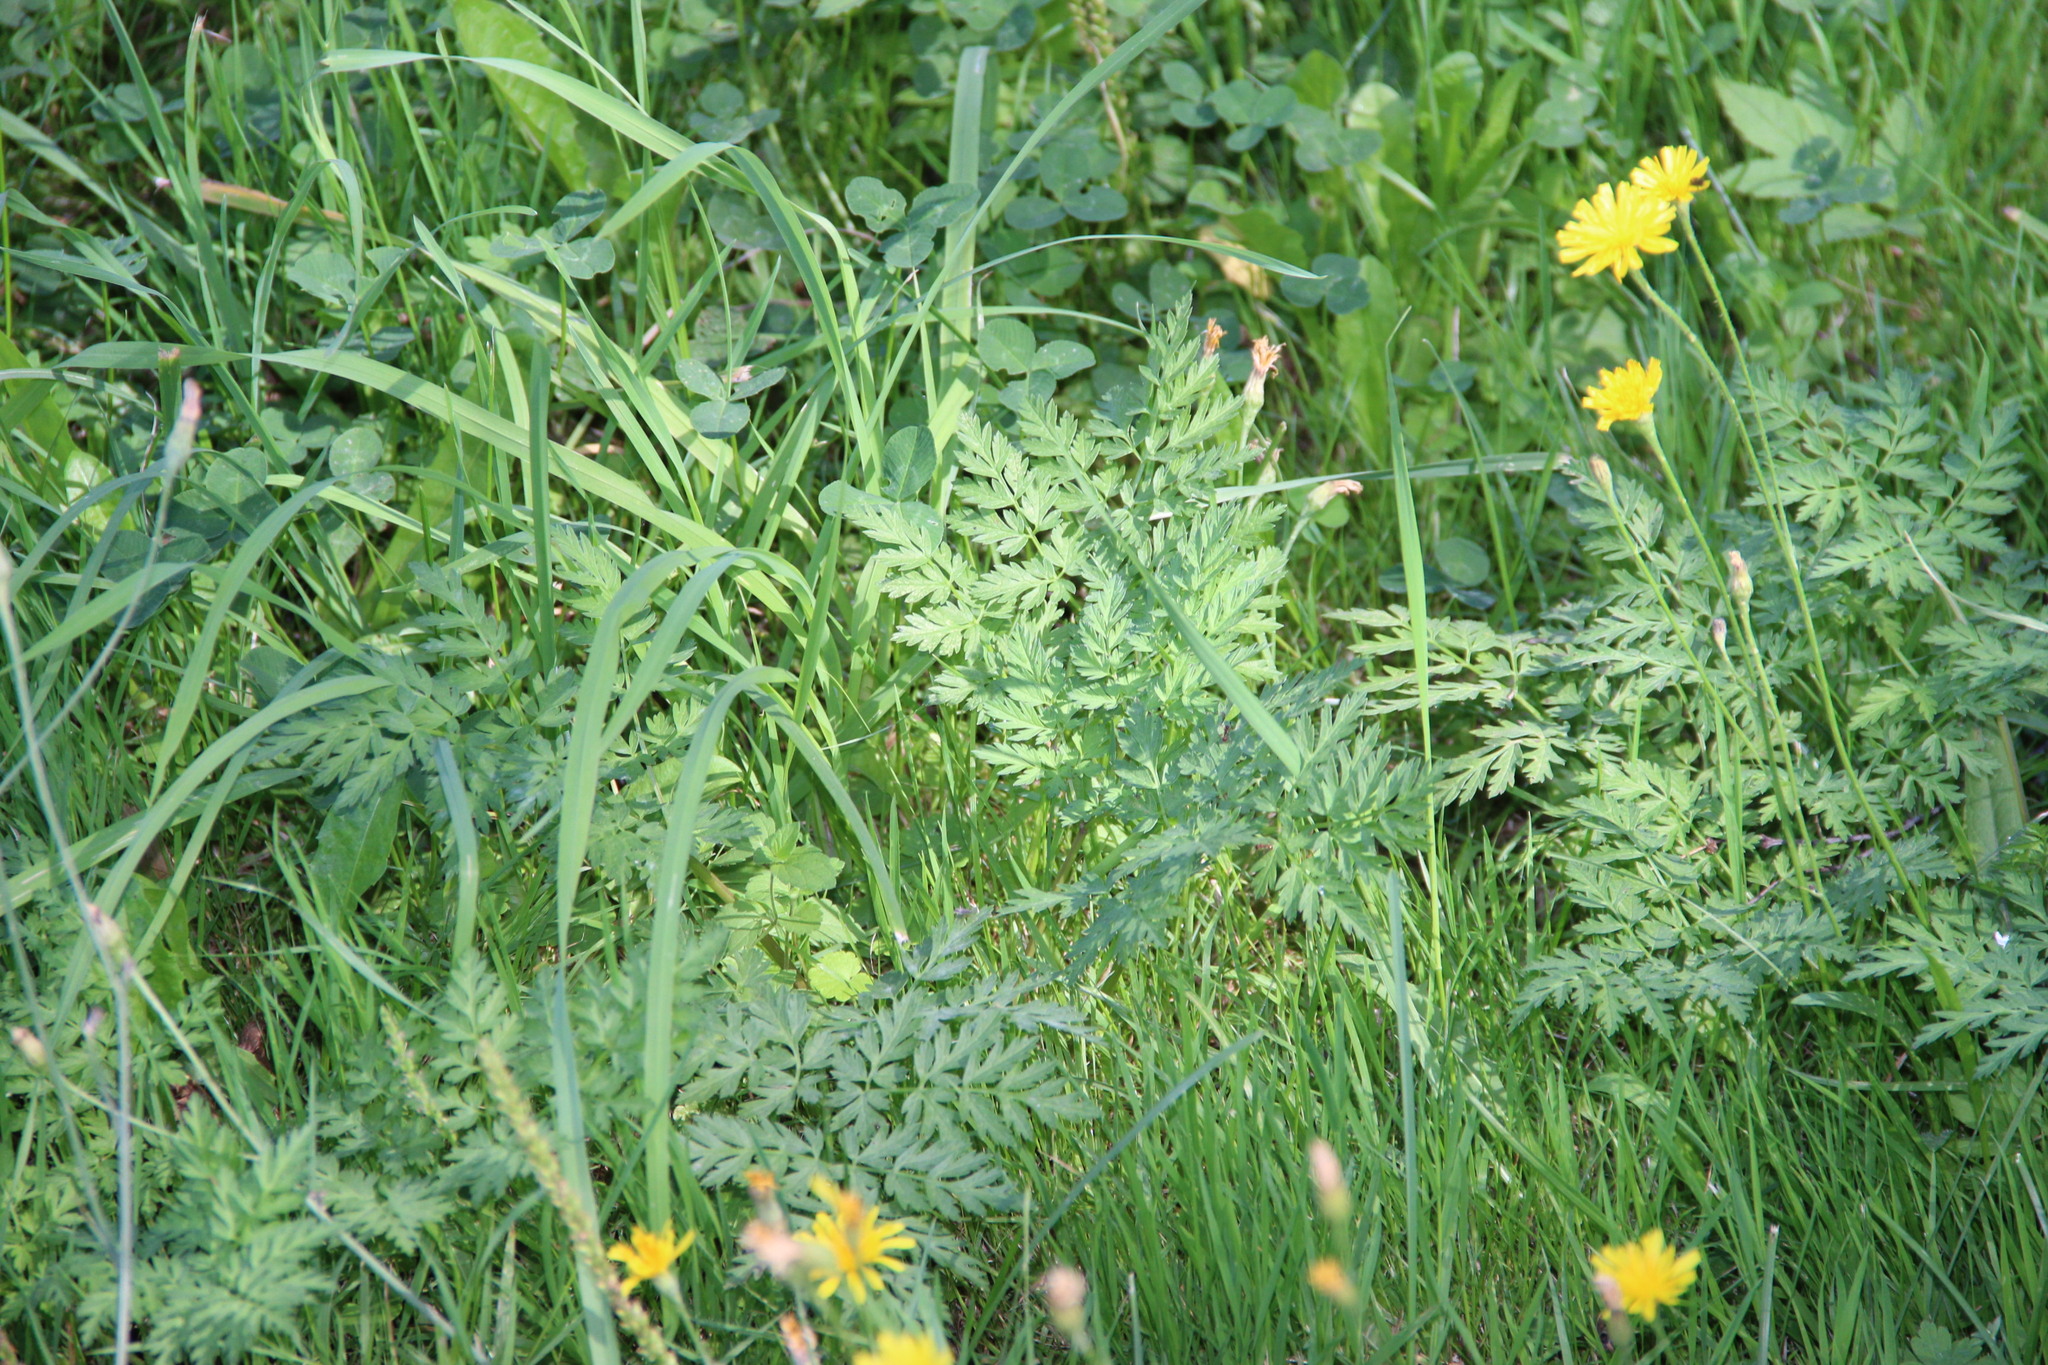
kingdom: Plantae
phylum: Tracheophyta
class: Magnoliopsida
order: Apiales
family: Apiaceae
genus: Anthriscus
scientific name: Anthriscus sylvestris
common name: Cow parsley
